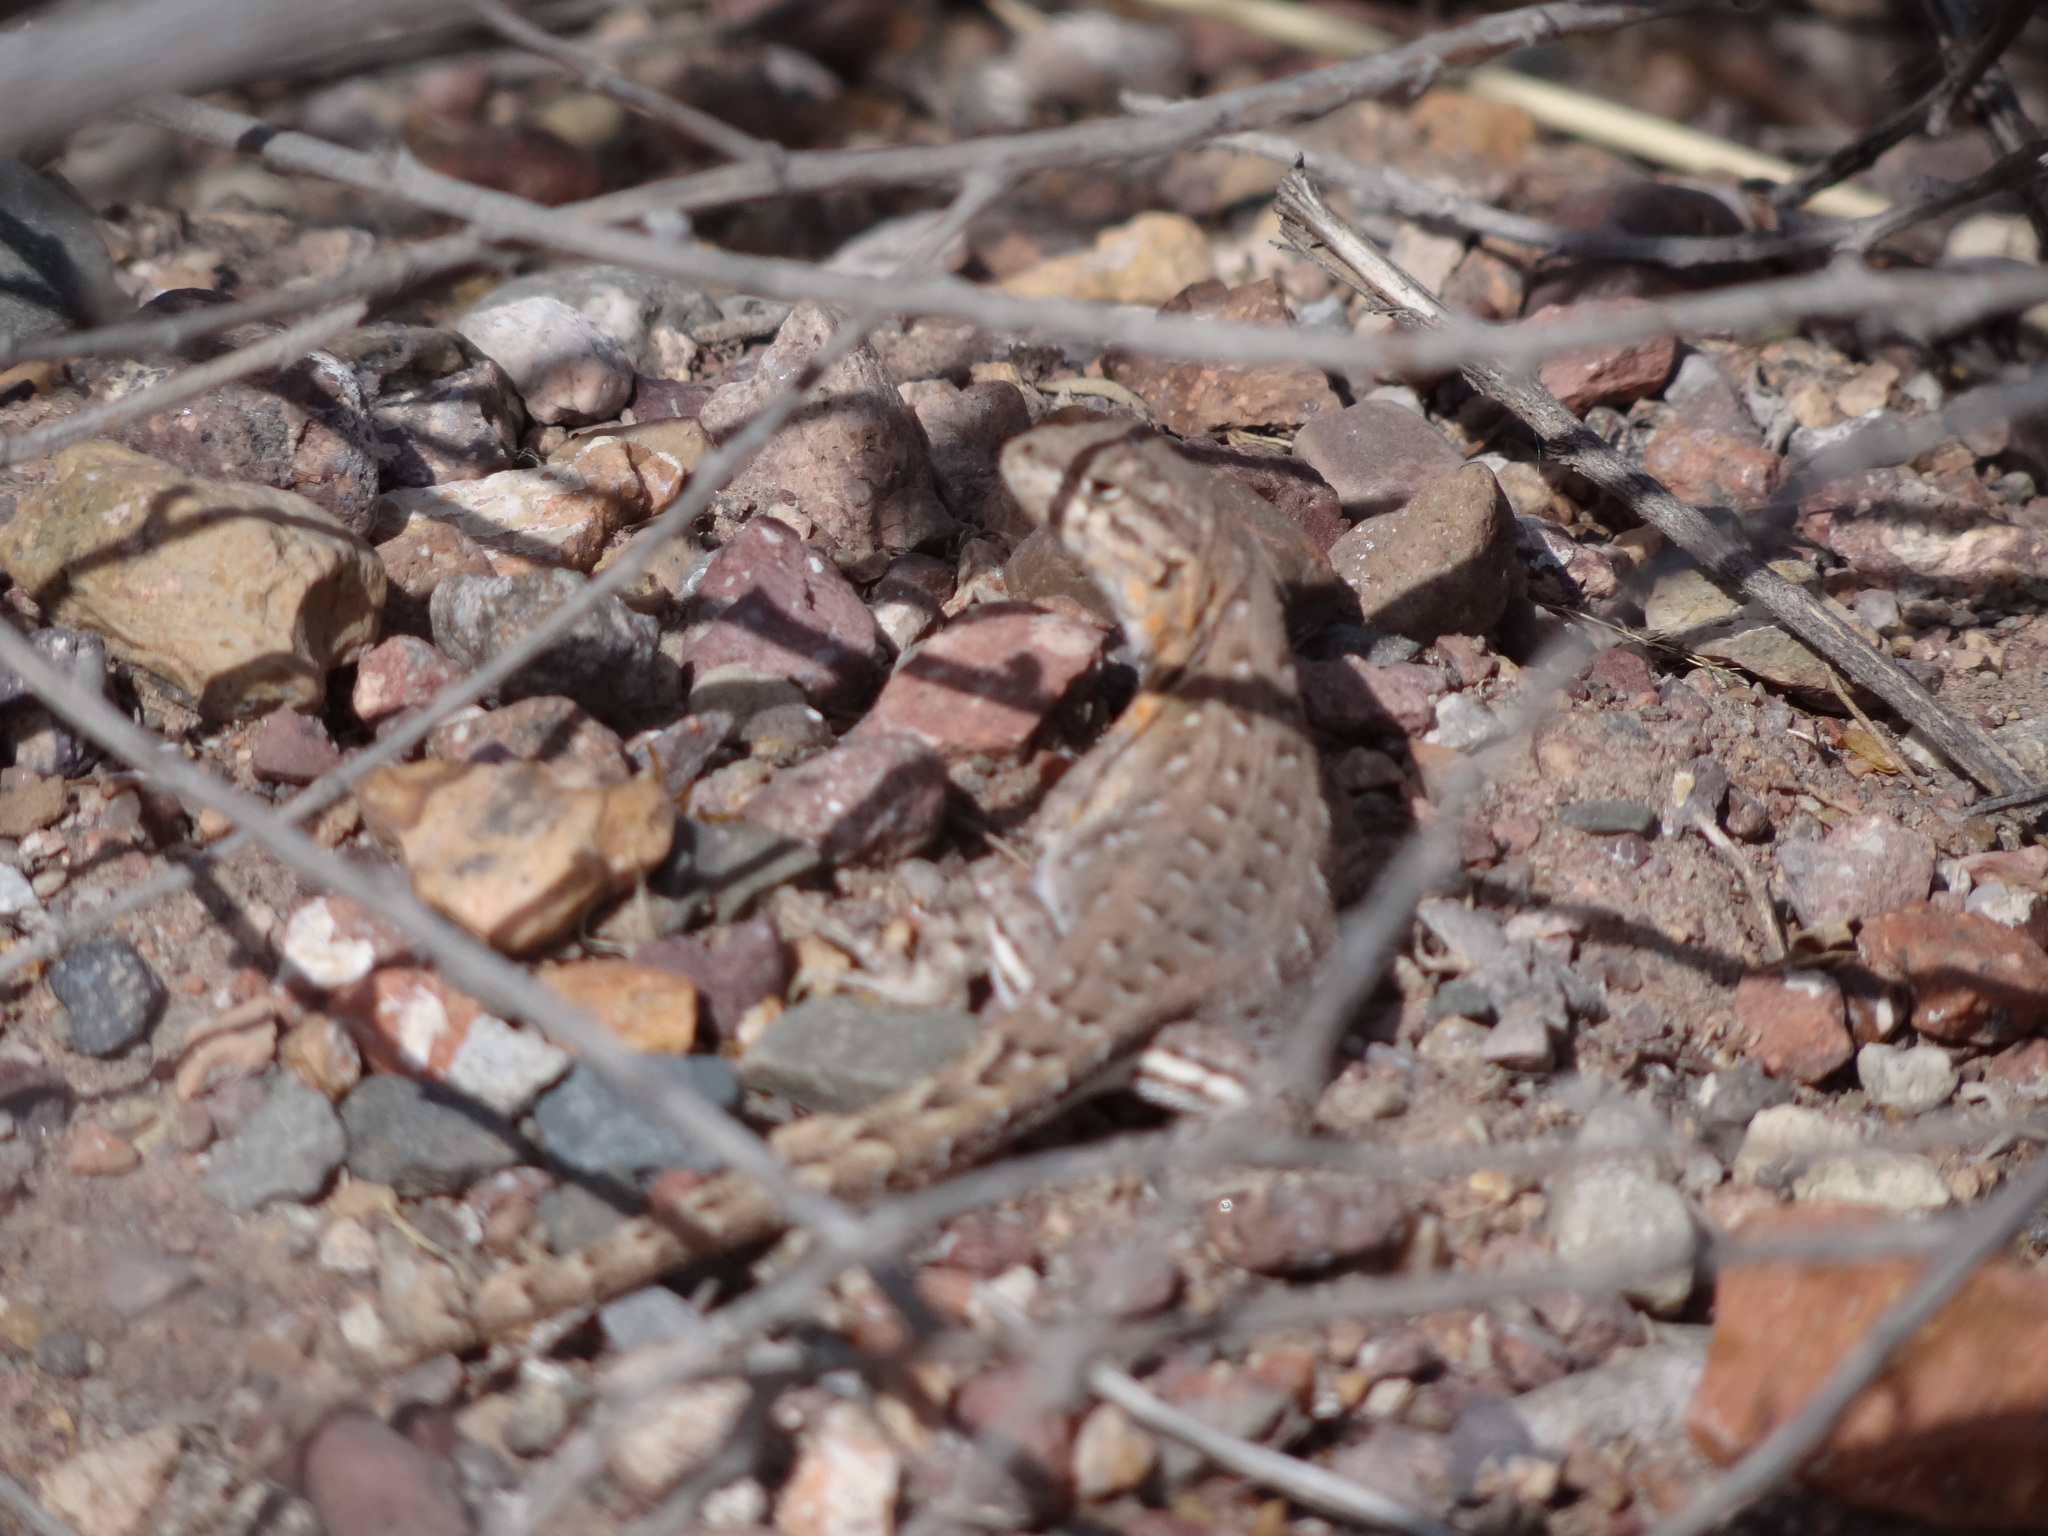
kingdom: Animalia
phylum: Chordata
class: Squamata
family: Liolaemidae
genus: Liolaemus
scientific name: Liolaemus darwinii
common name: Darwin's tree iguana
